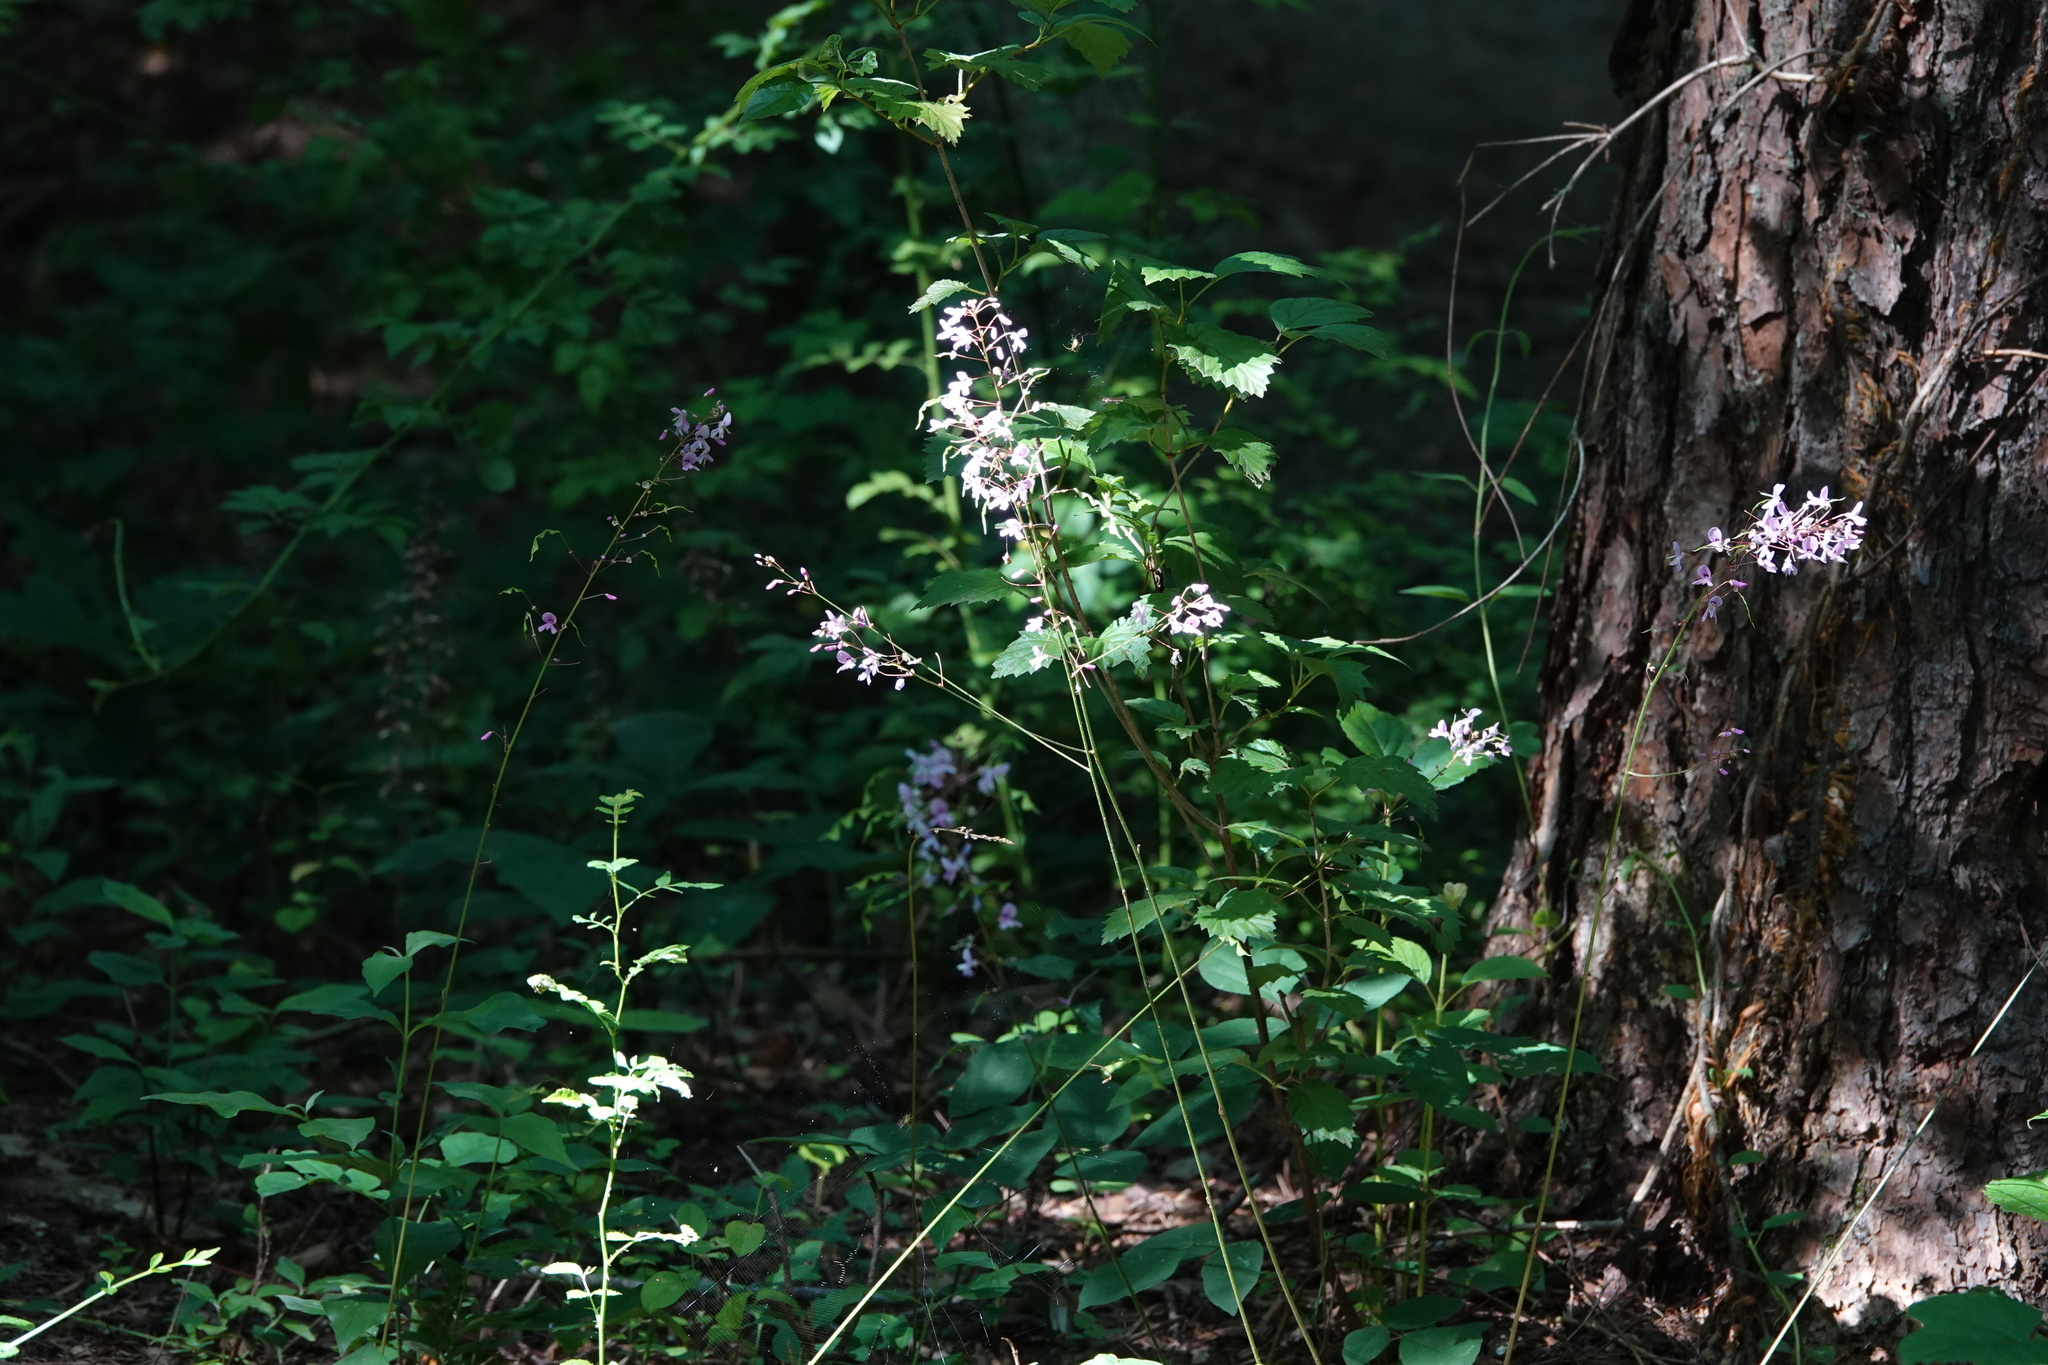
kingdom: Plantae
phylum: Tracheophyta
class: Magnoliopsida
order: Fabales
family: Fabaceae
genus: Hylodesmum
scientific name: Hylodesmum nudiflorum
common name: Bare-stemmed tick-trefoil
